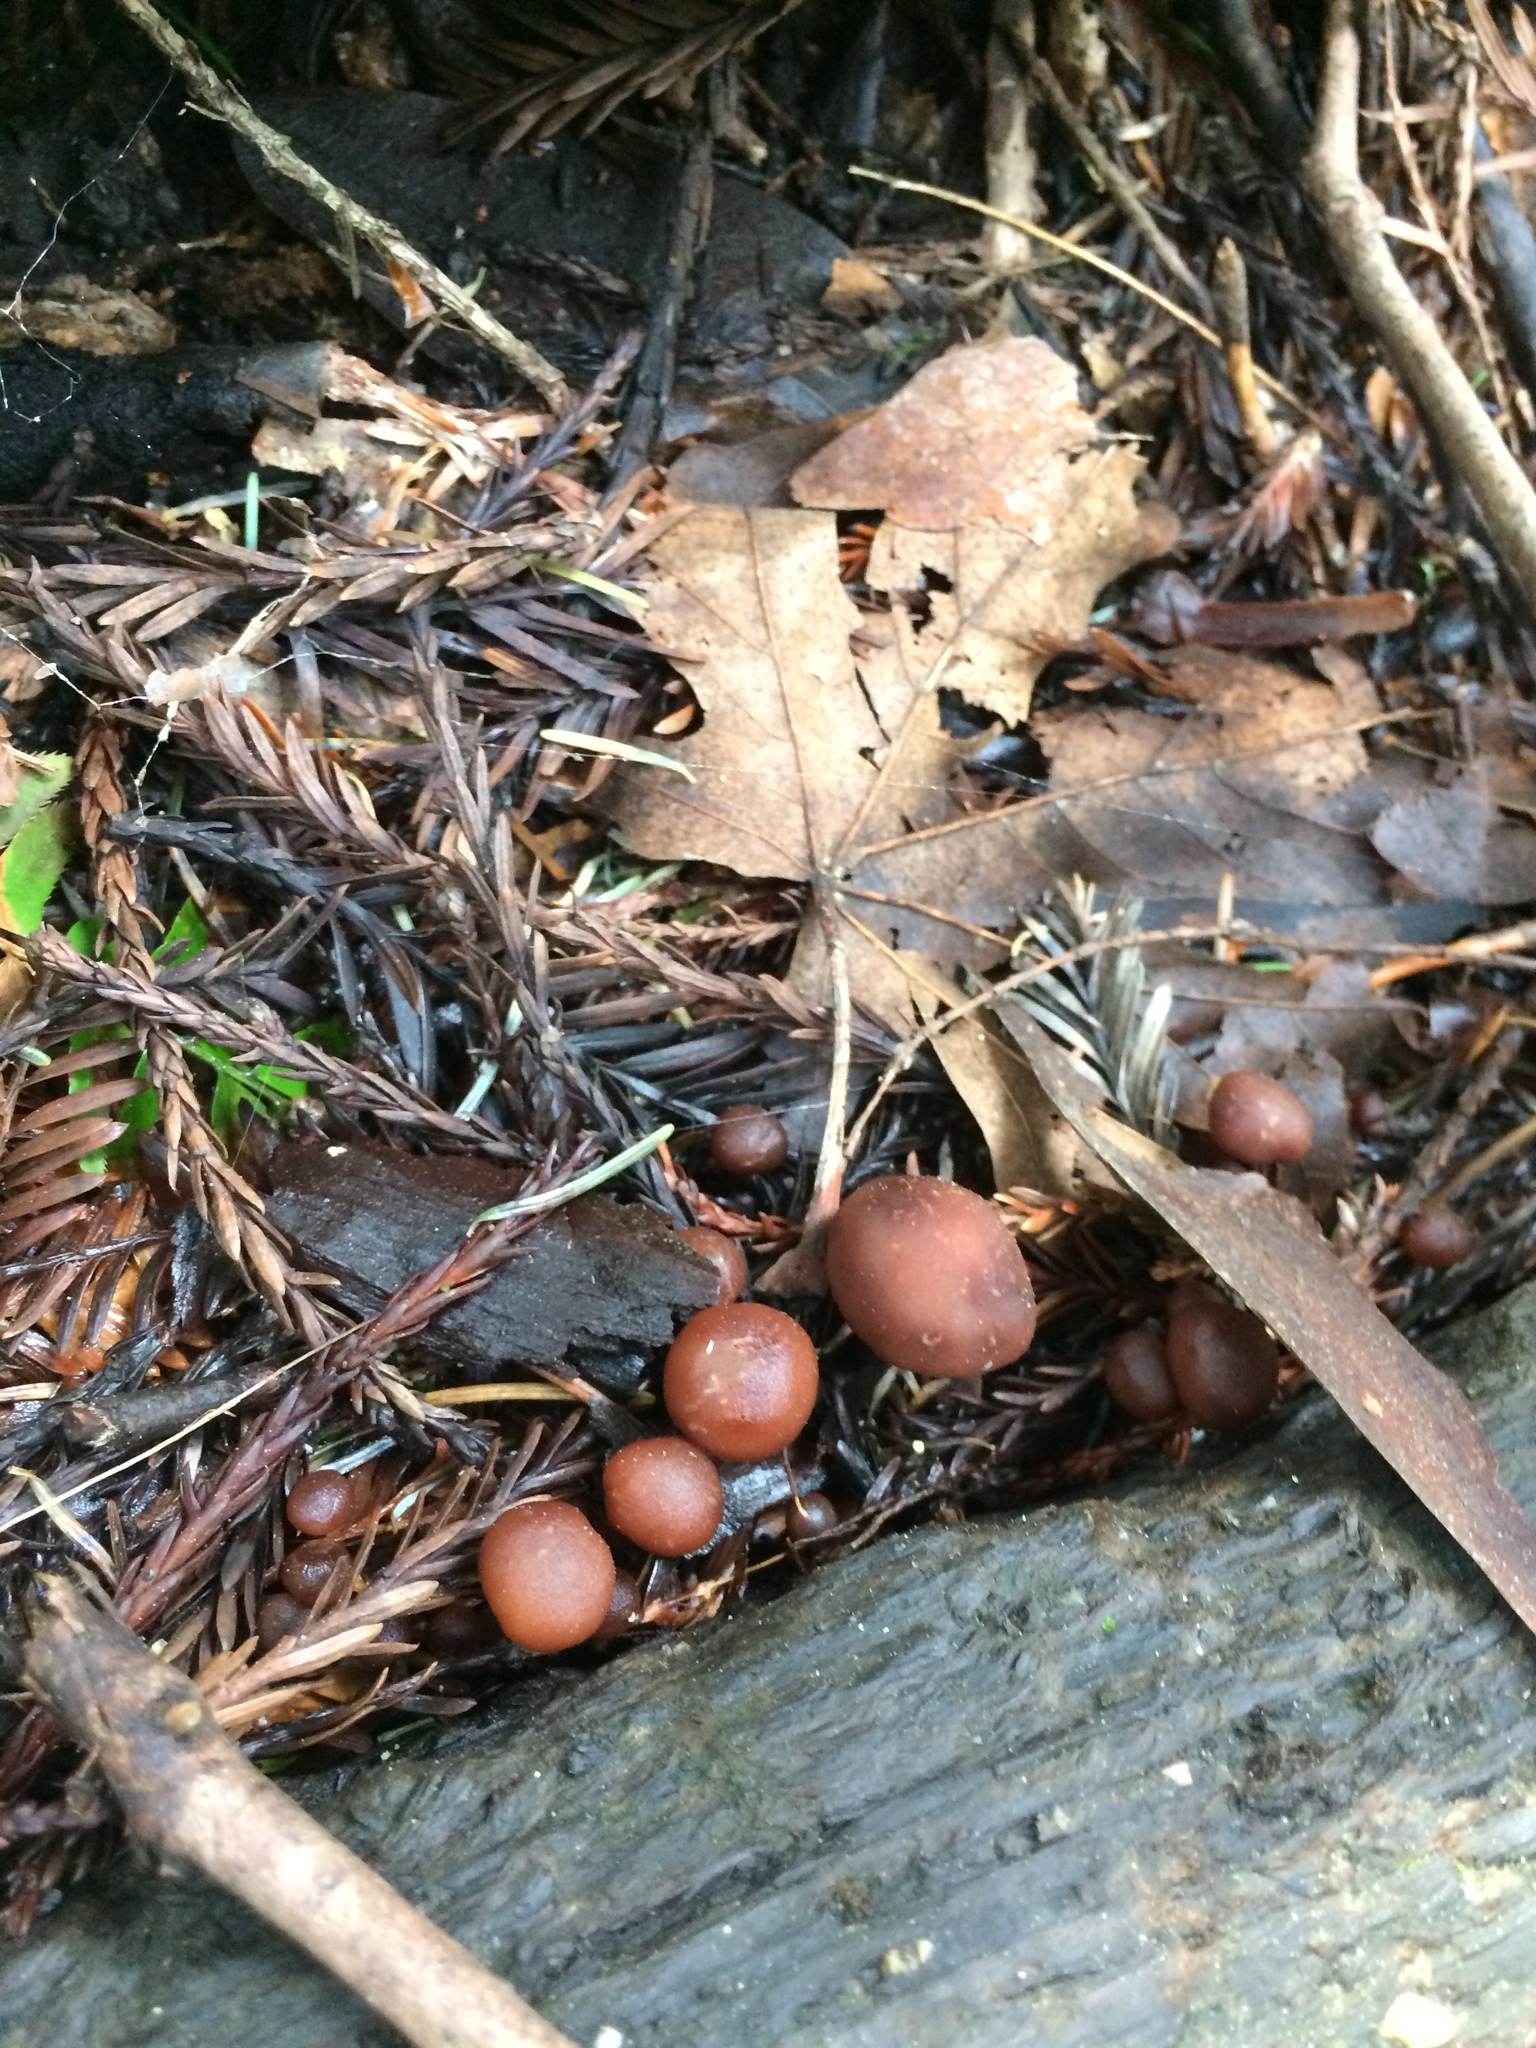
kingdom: Fungi
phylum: Basidiomycota
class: Agaricomycetes
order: Agaricales
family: Omphalotaceae
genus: Gymnopus
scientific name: Gymnopus brassicolens
